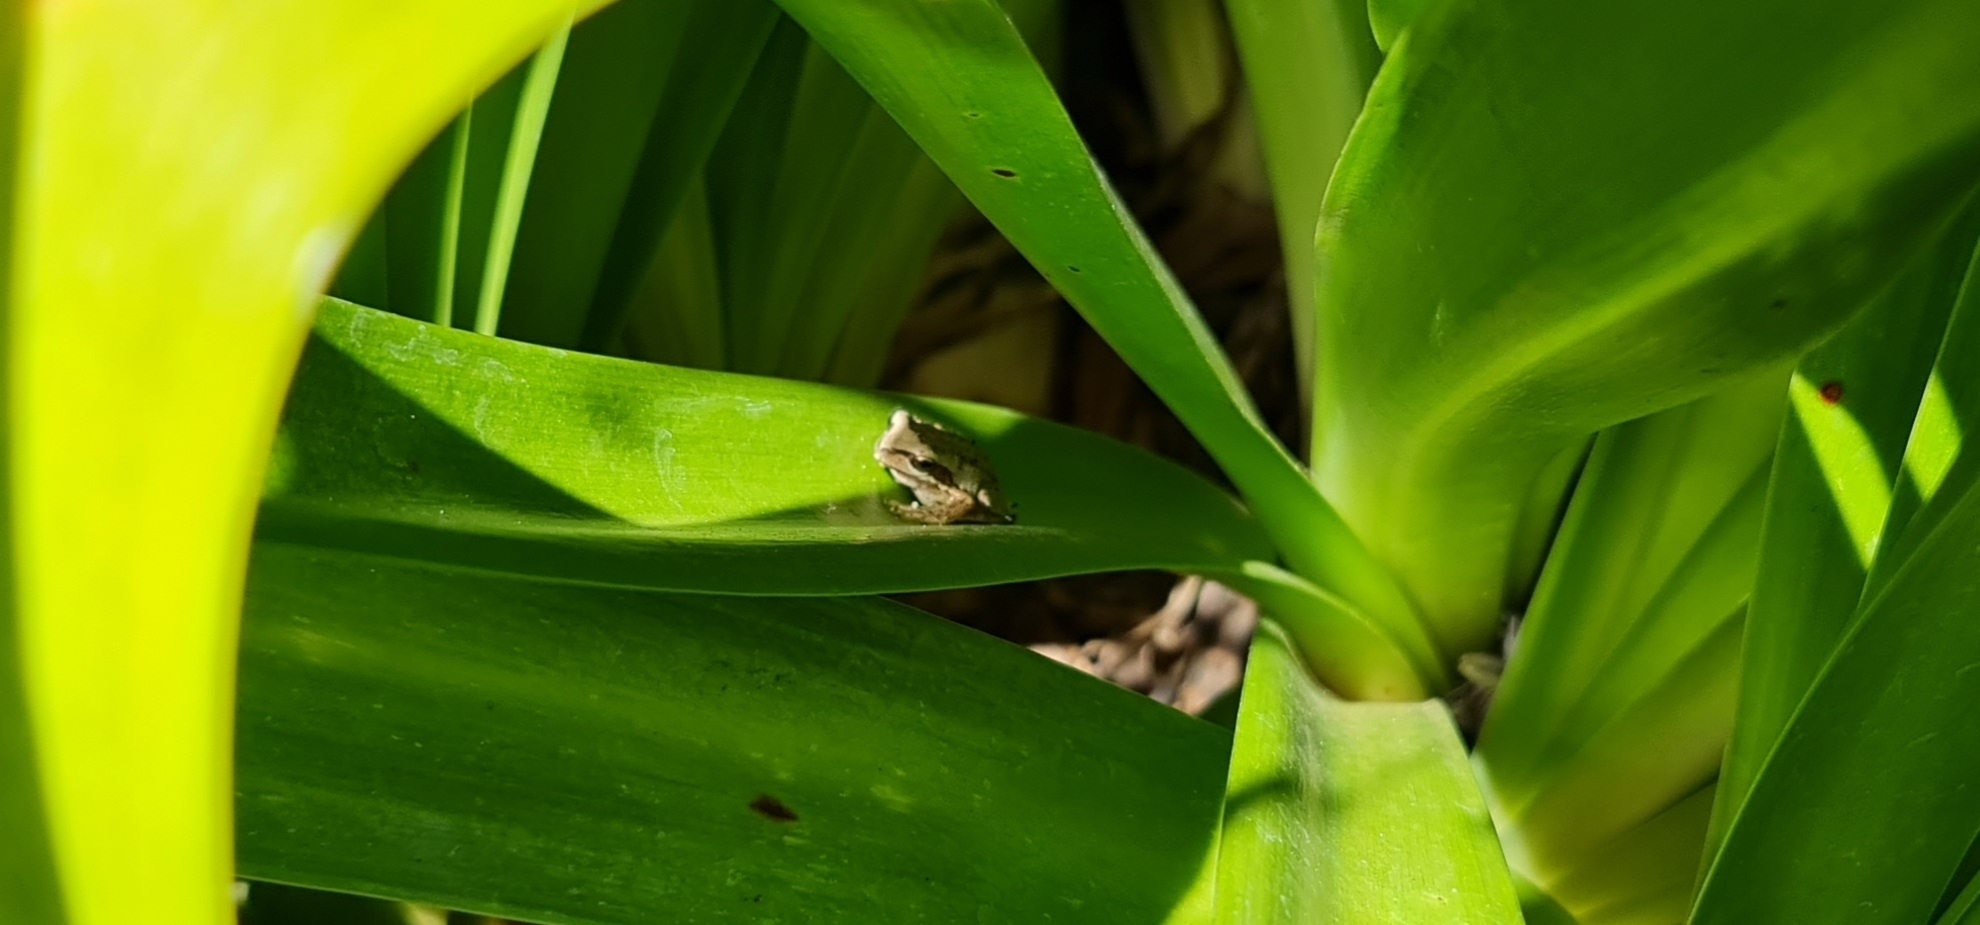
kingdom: Animalia
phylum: Chordata
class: Amphibia
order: Anura
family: Pelodryadidae
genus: Litoria
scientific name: Litoria
